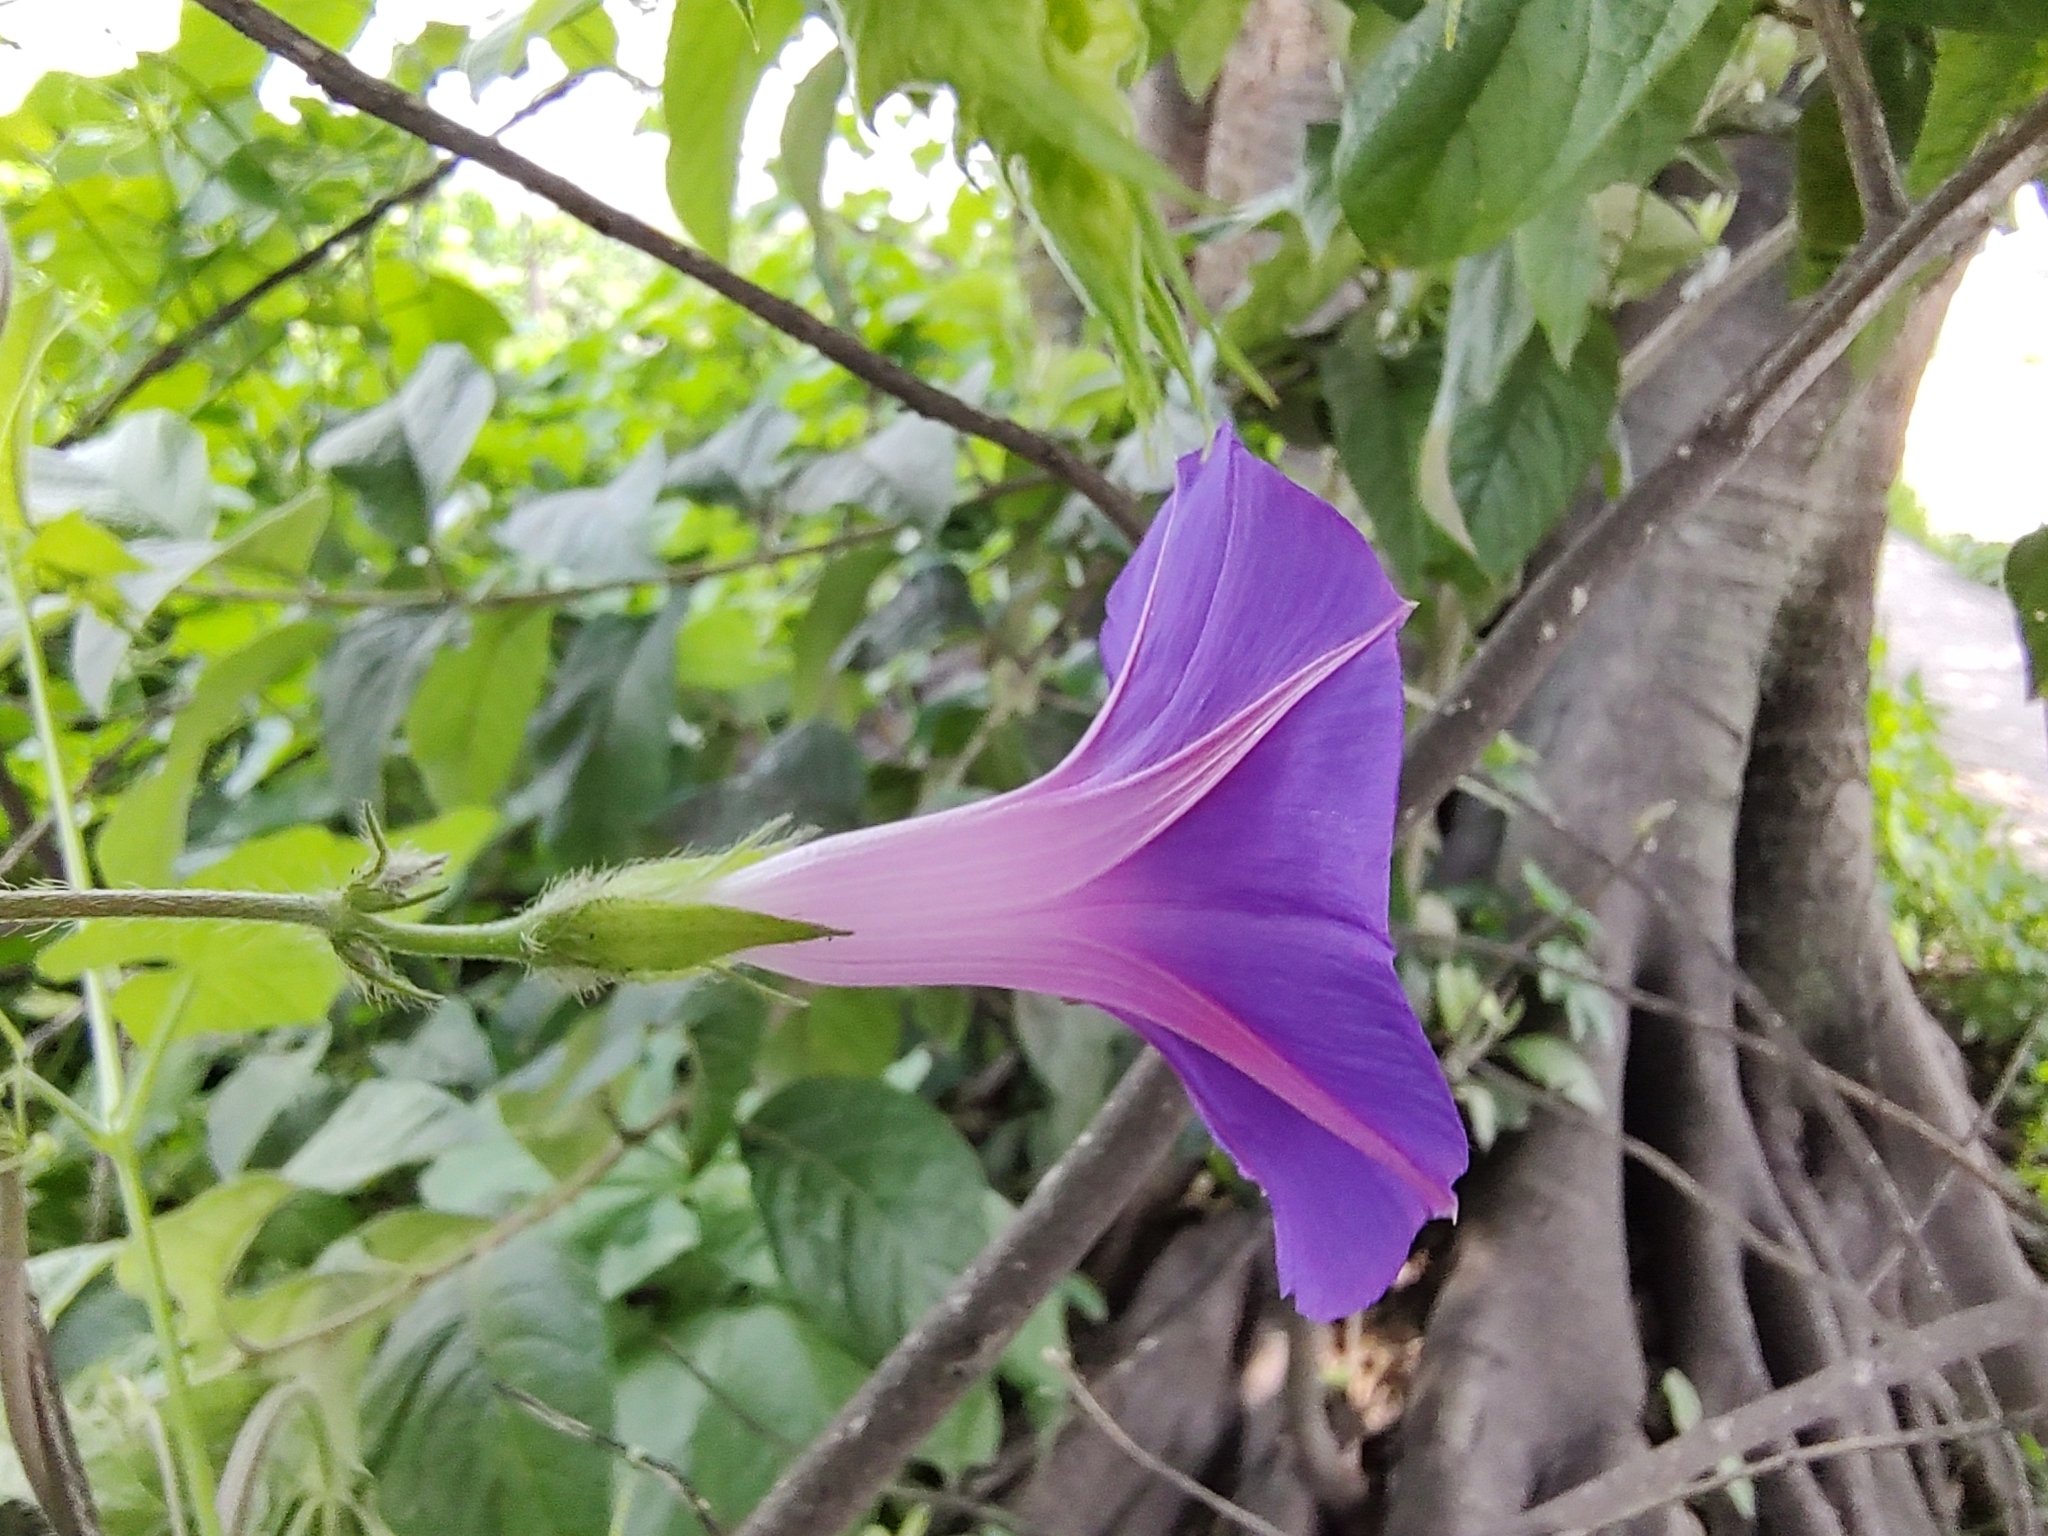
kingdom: Plantae
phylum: Tracheophyta
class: Magnoliopsida
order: Solanales
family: Convolvulaceae
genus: Ipomoea
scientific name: Ipomoea purpurea
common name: Common morning-glory
